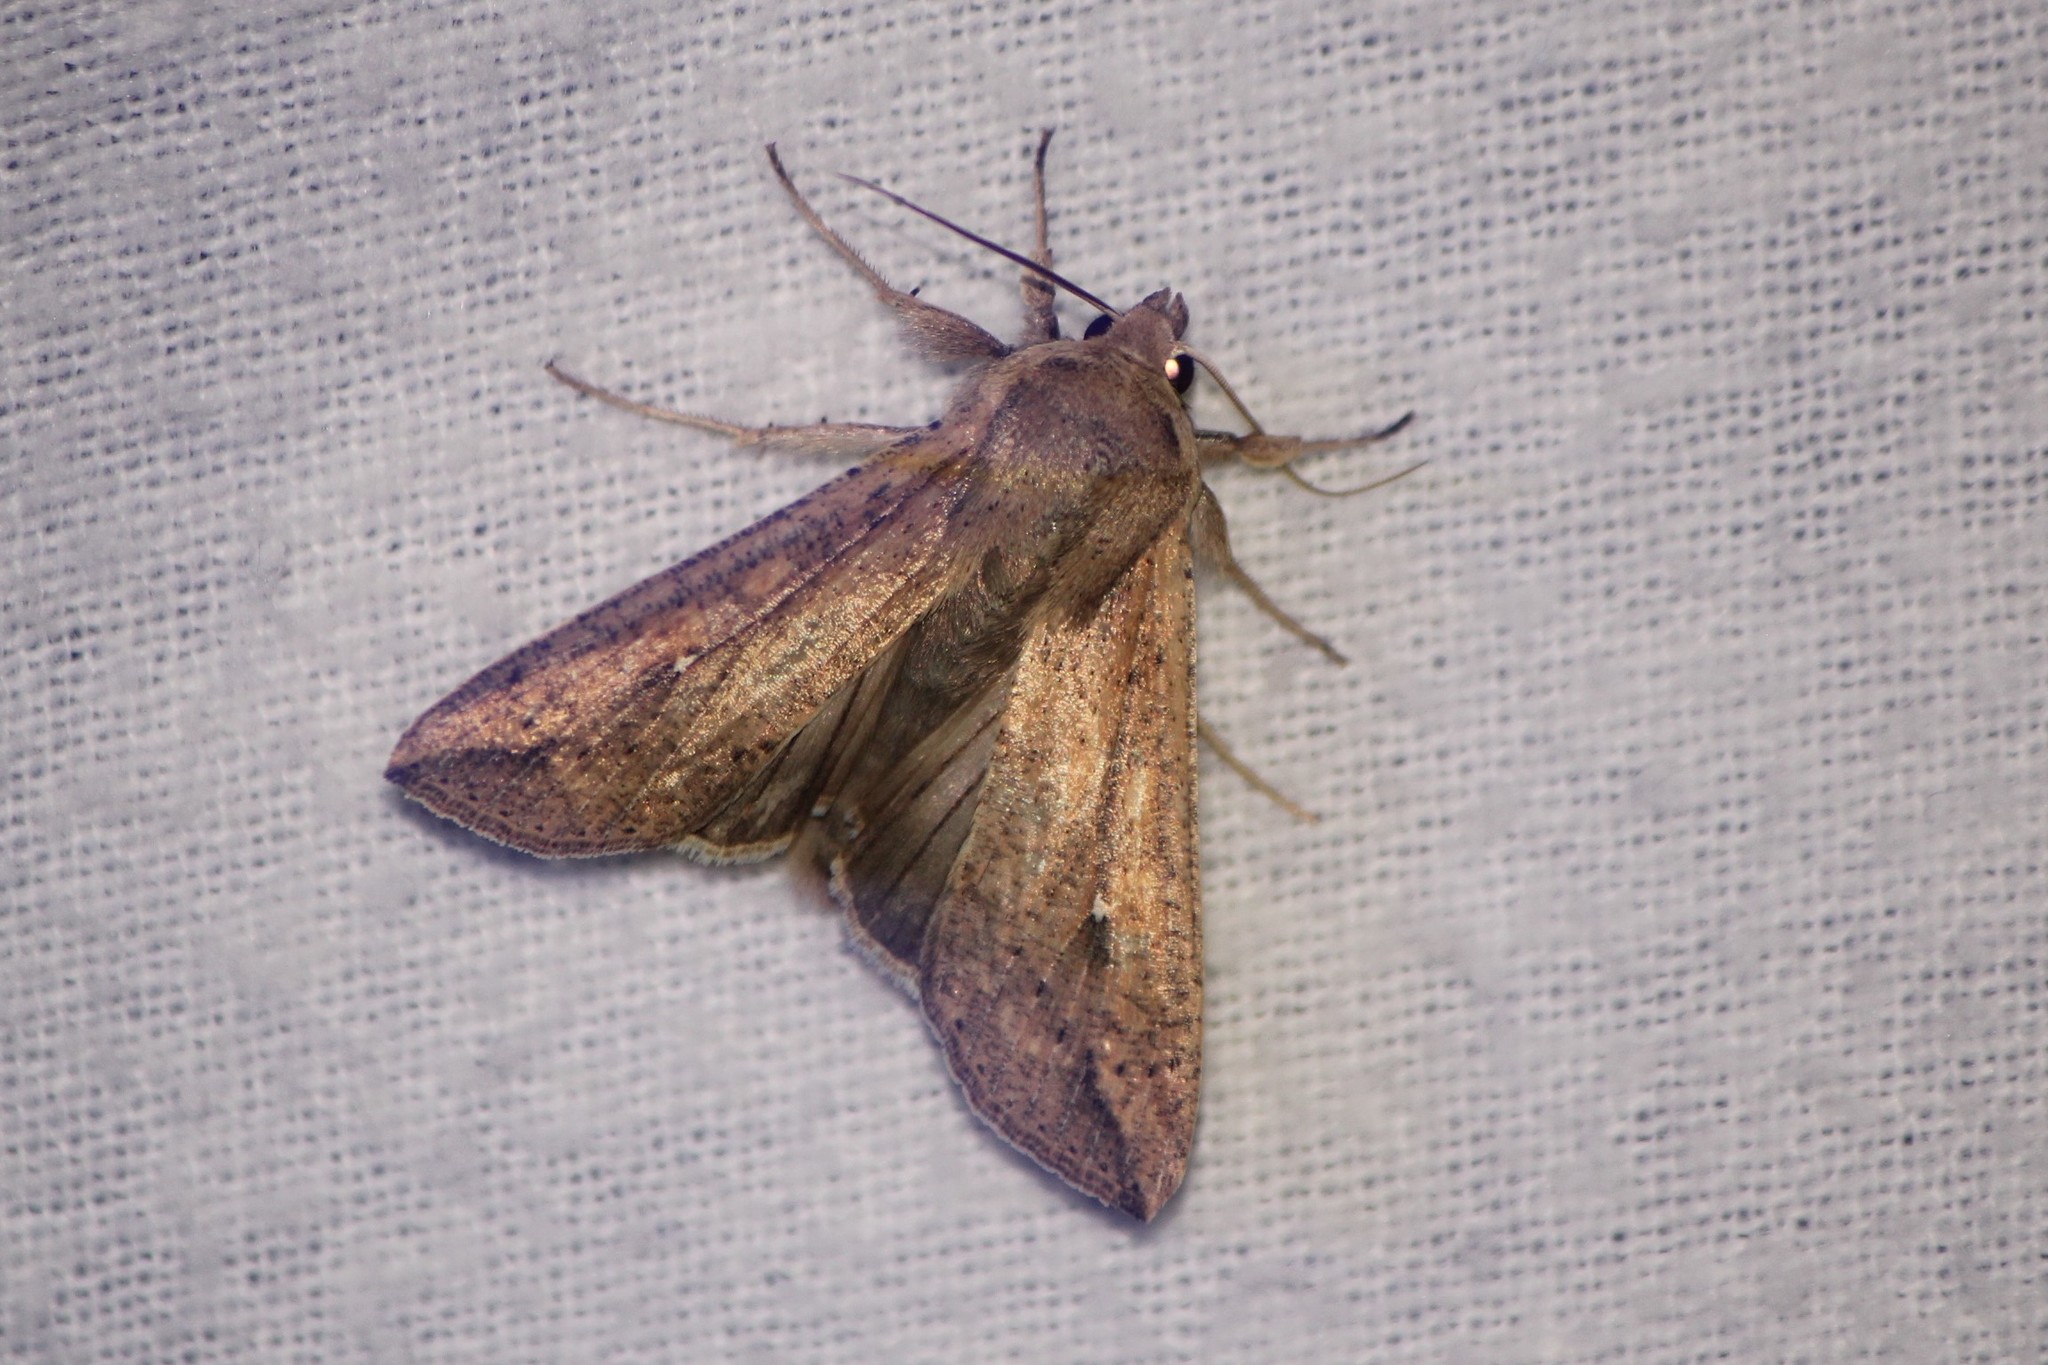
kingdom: Animalia
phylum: Arthropoda
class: Insecta
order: Lepidoptera
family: Noctuidae
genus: Mythimna
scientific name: Mythimna unipuncta
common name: White-speck
